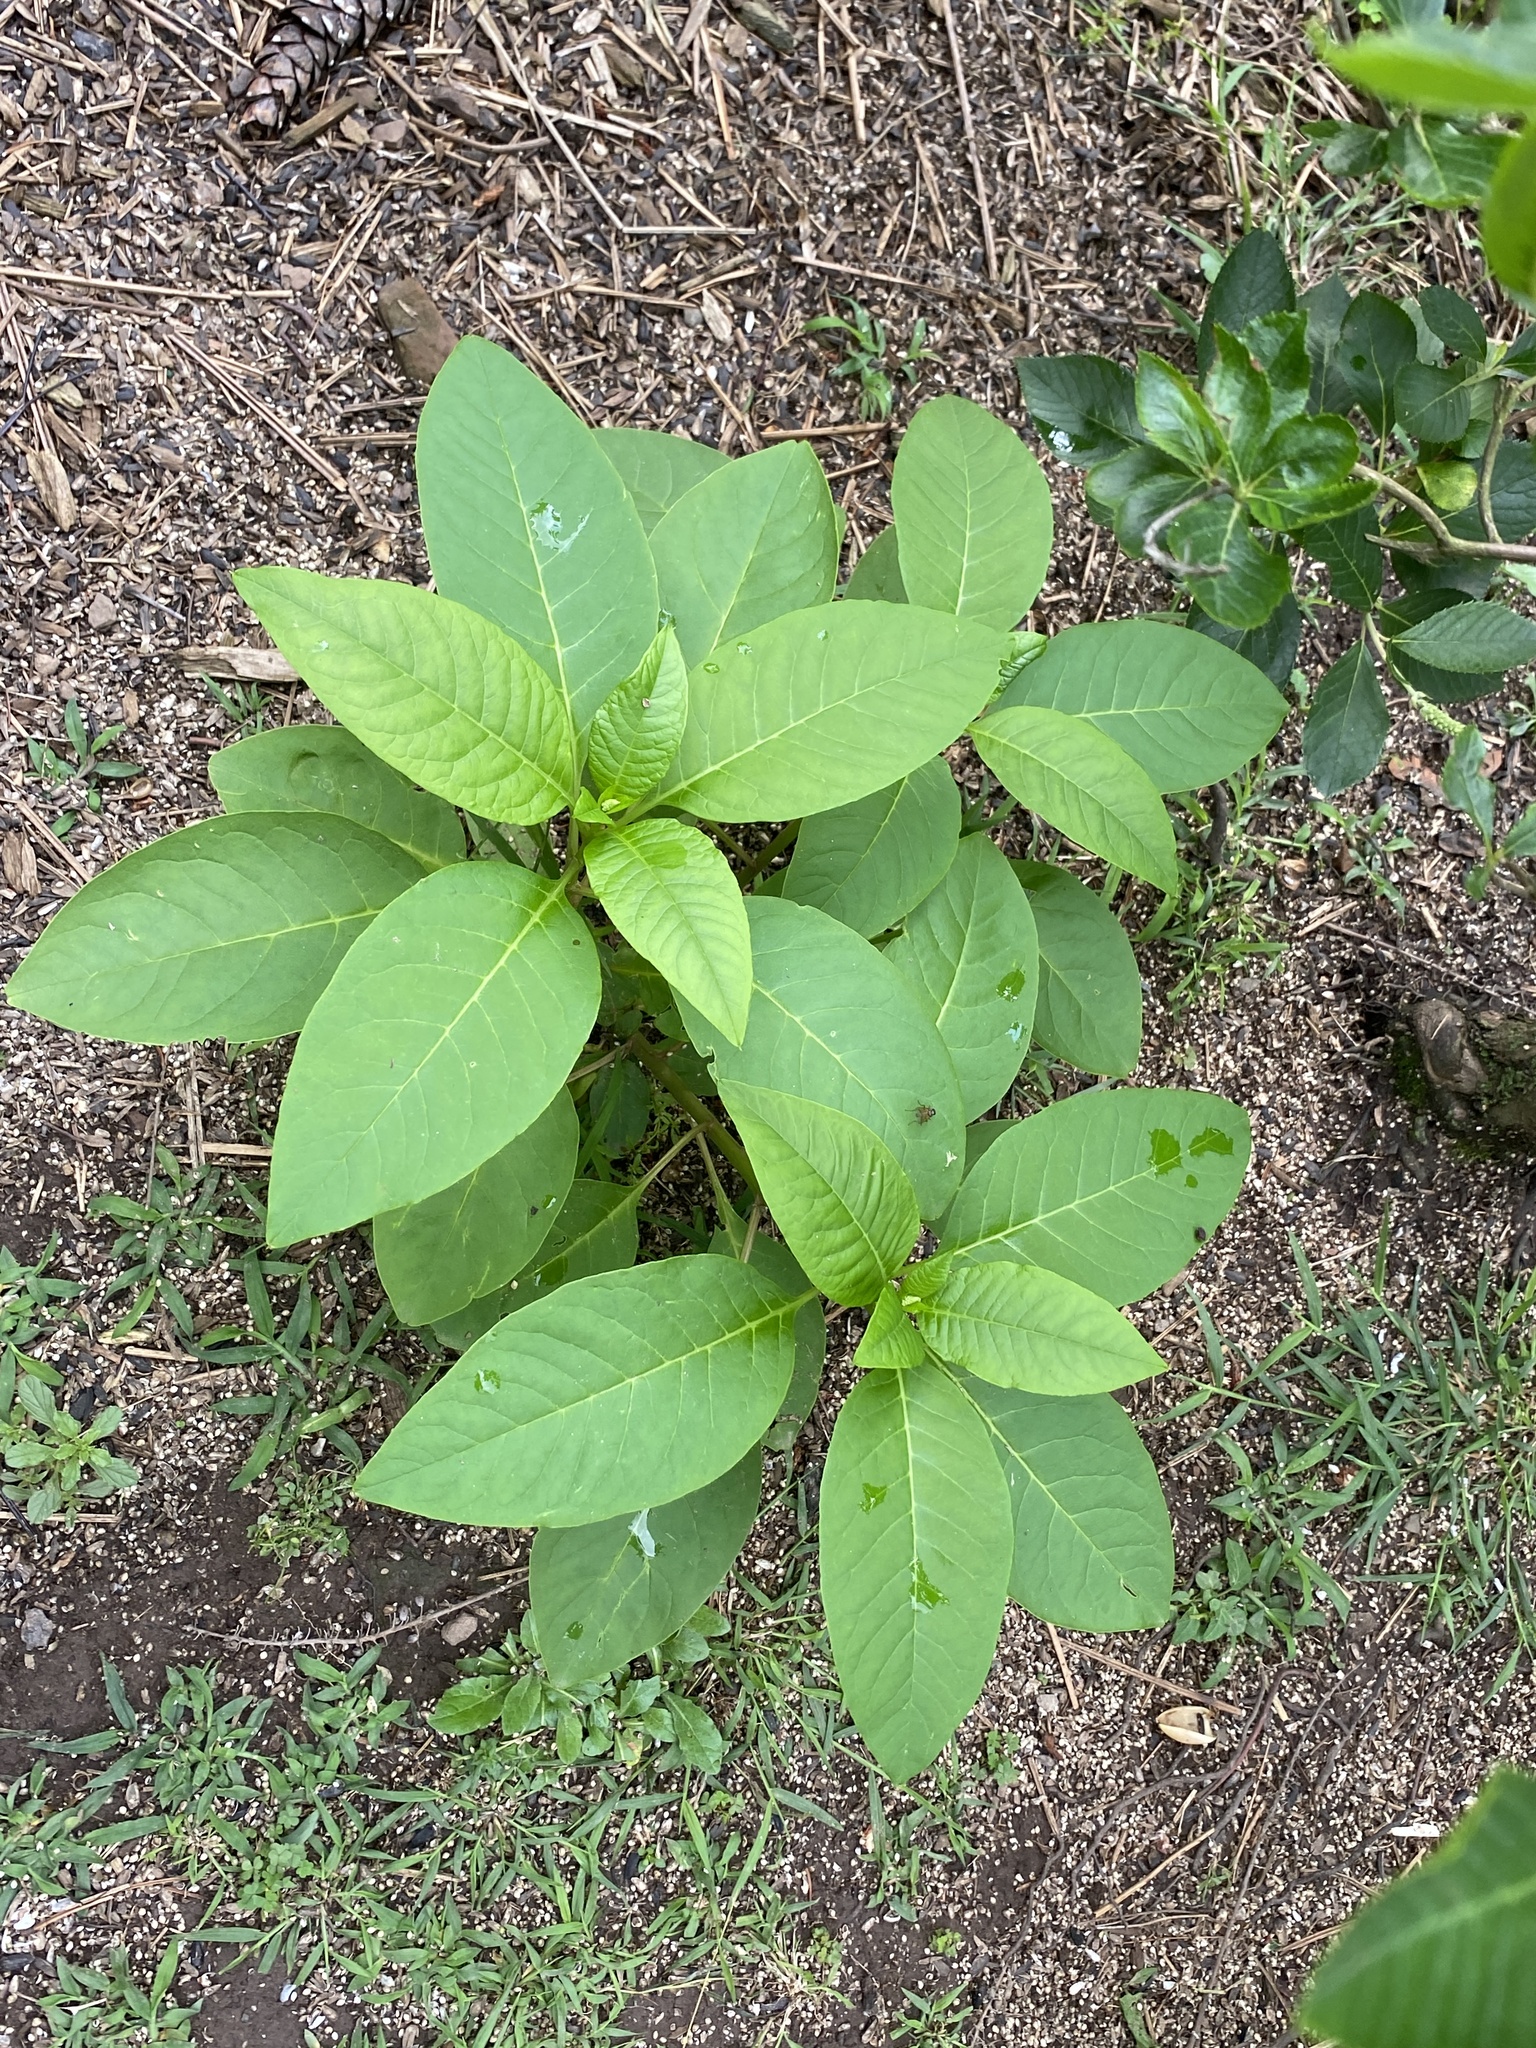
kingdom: Plantae
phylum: Tracheophyta
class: Magnoliopsida
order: Caryophyllales
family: Phytolaccaceae
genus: Phytolacca
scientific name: Phytolacca americana
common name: American pokeweed
